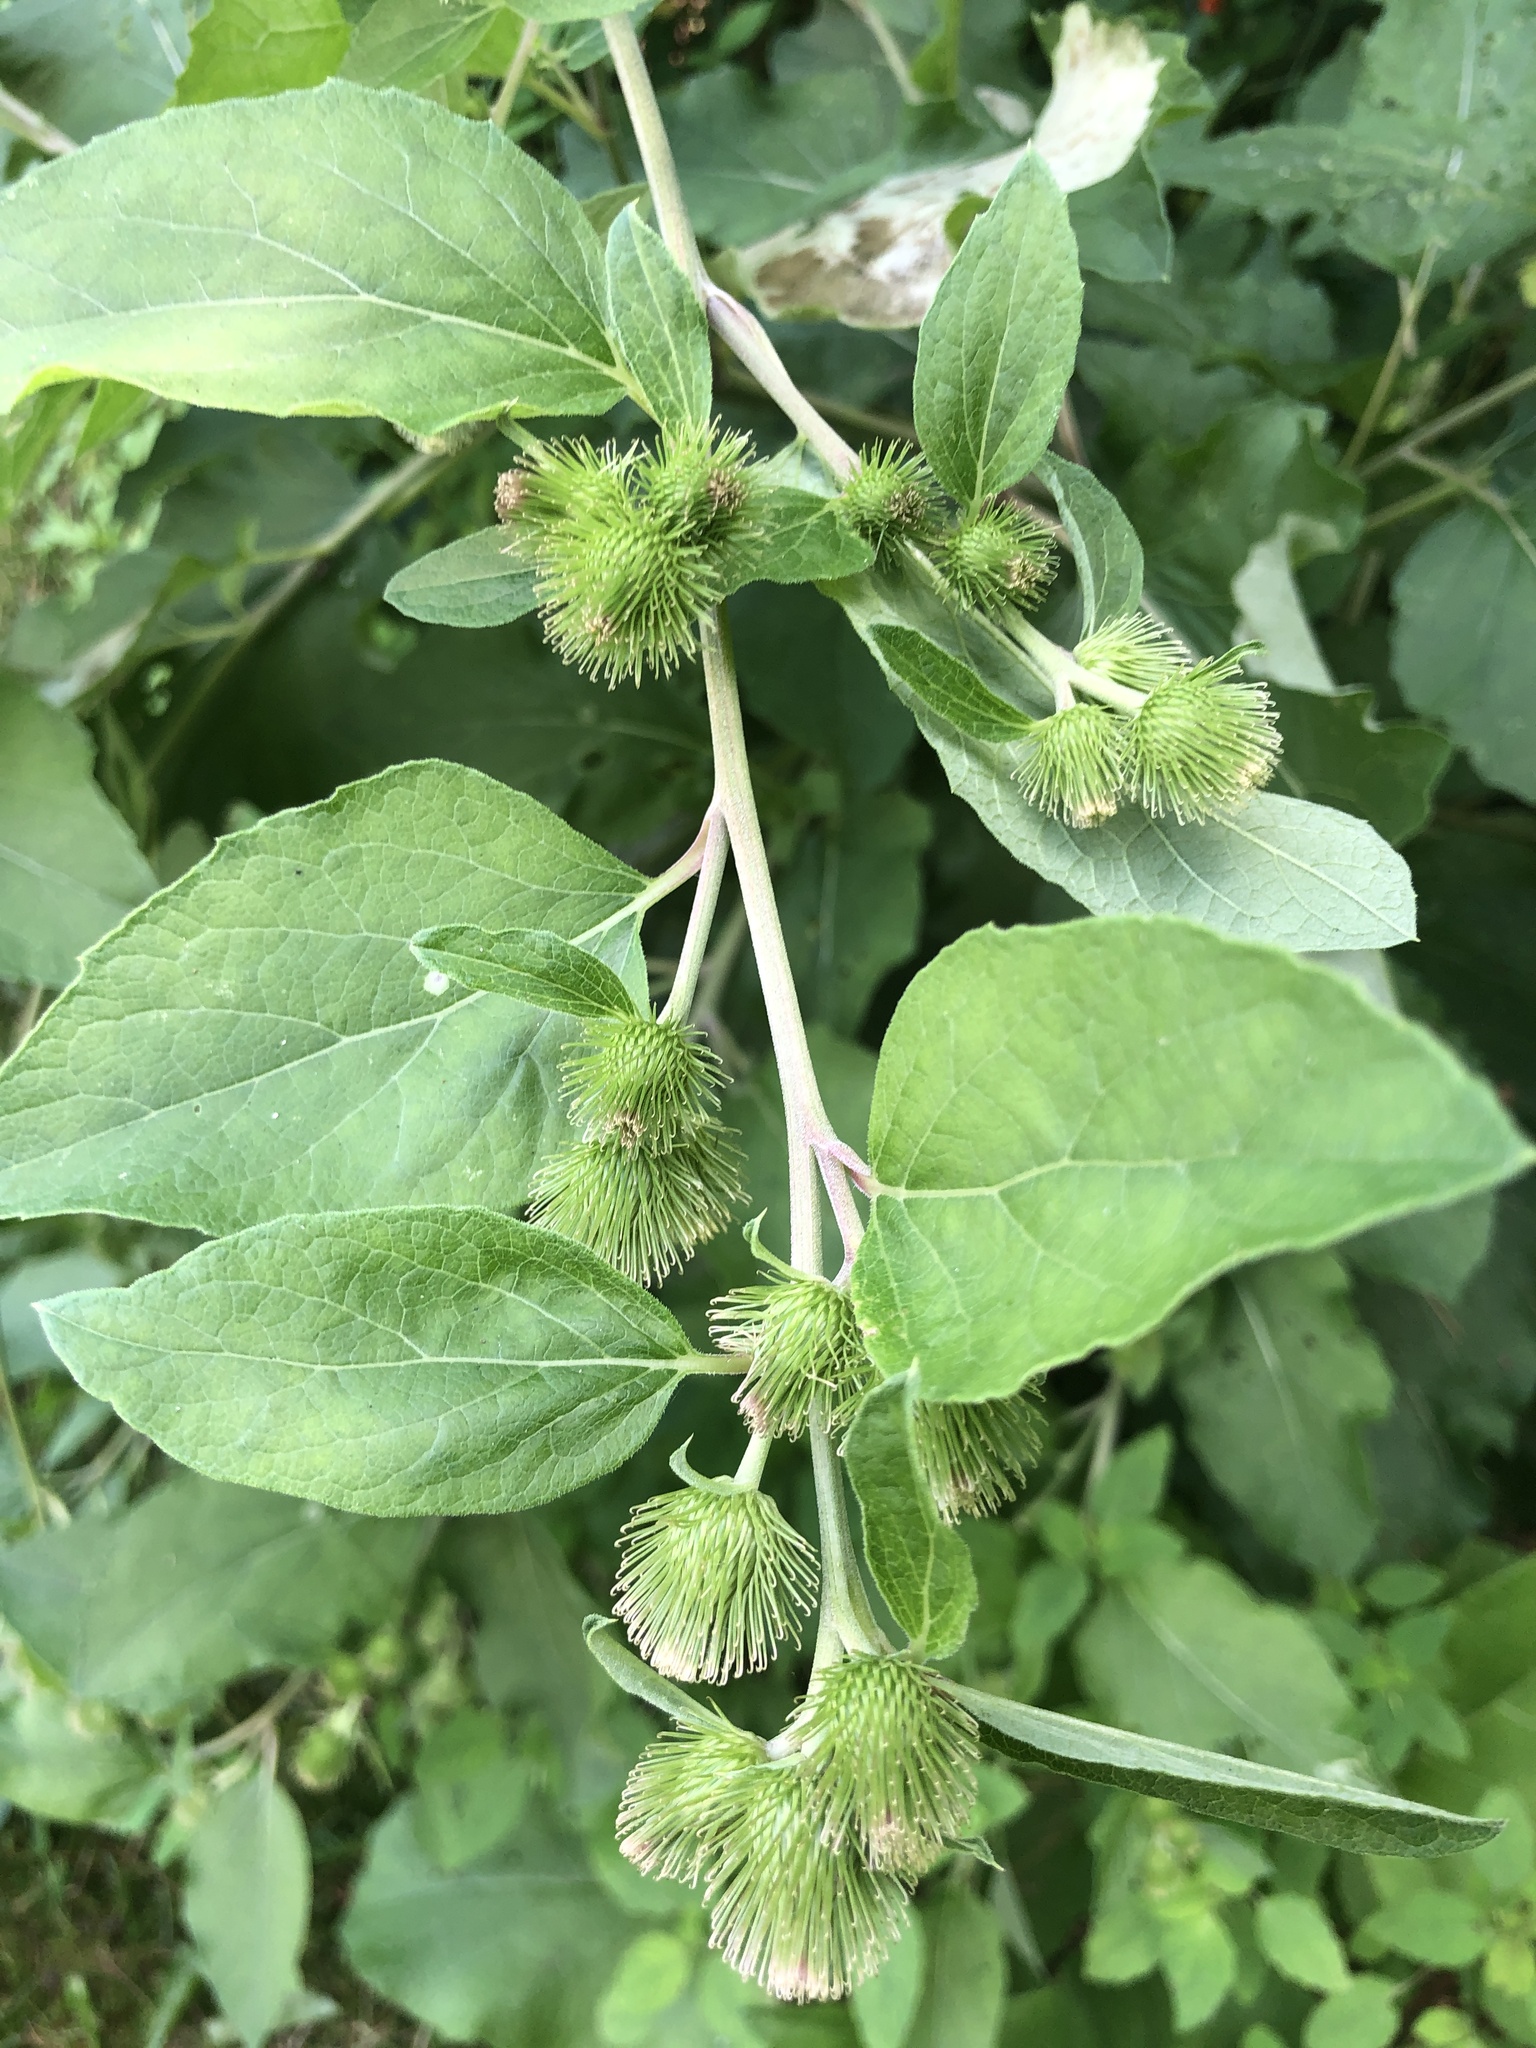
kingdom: Plantae
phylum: Tracheophyta
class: Magnoliopsida
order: Asterales
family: Asteraceae
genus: Arctium
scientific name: Arctium minus
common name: Lesser burdock
